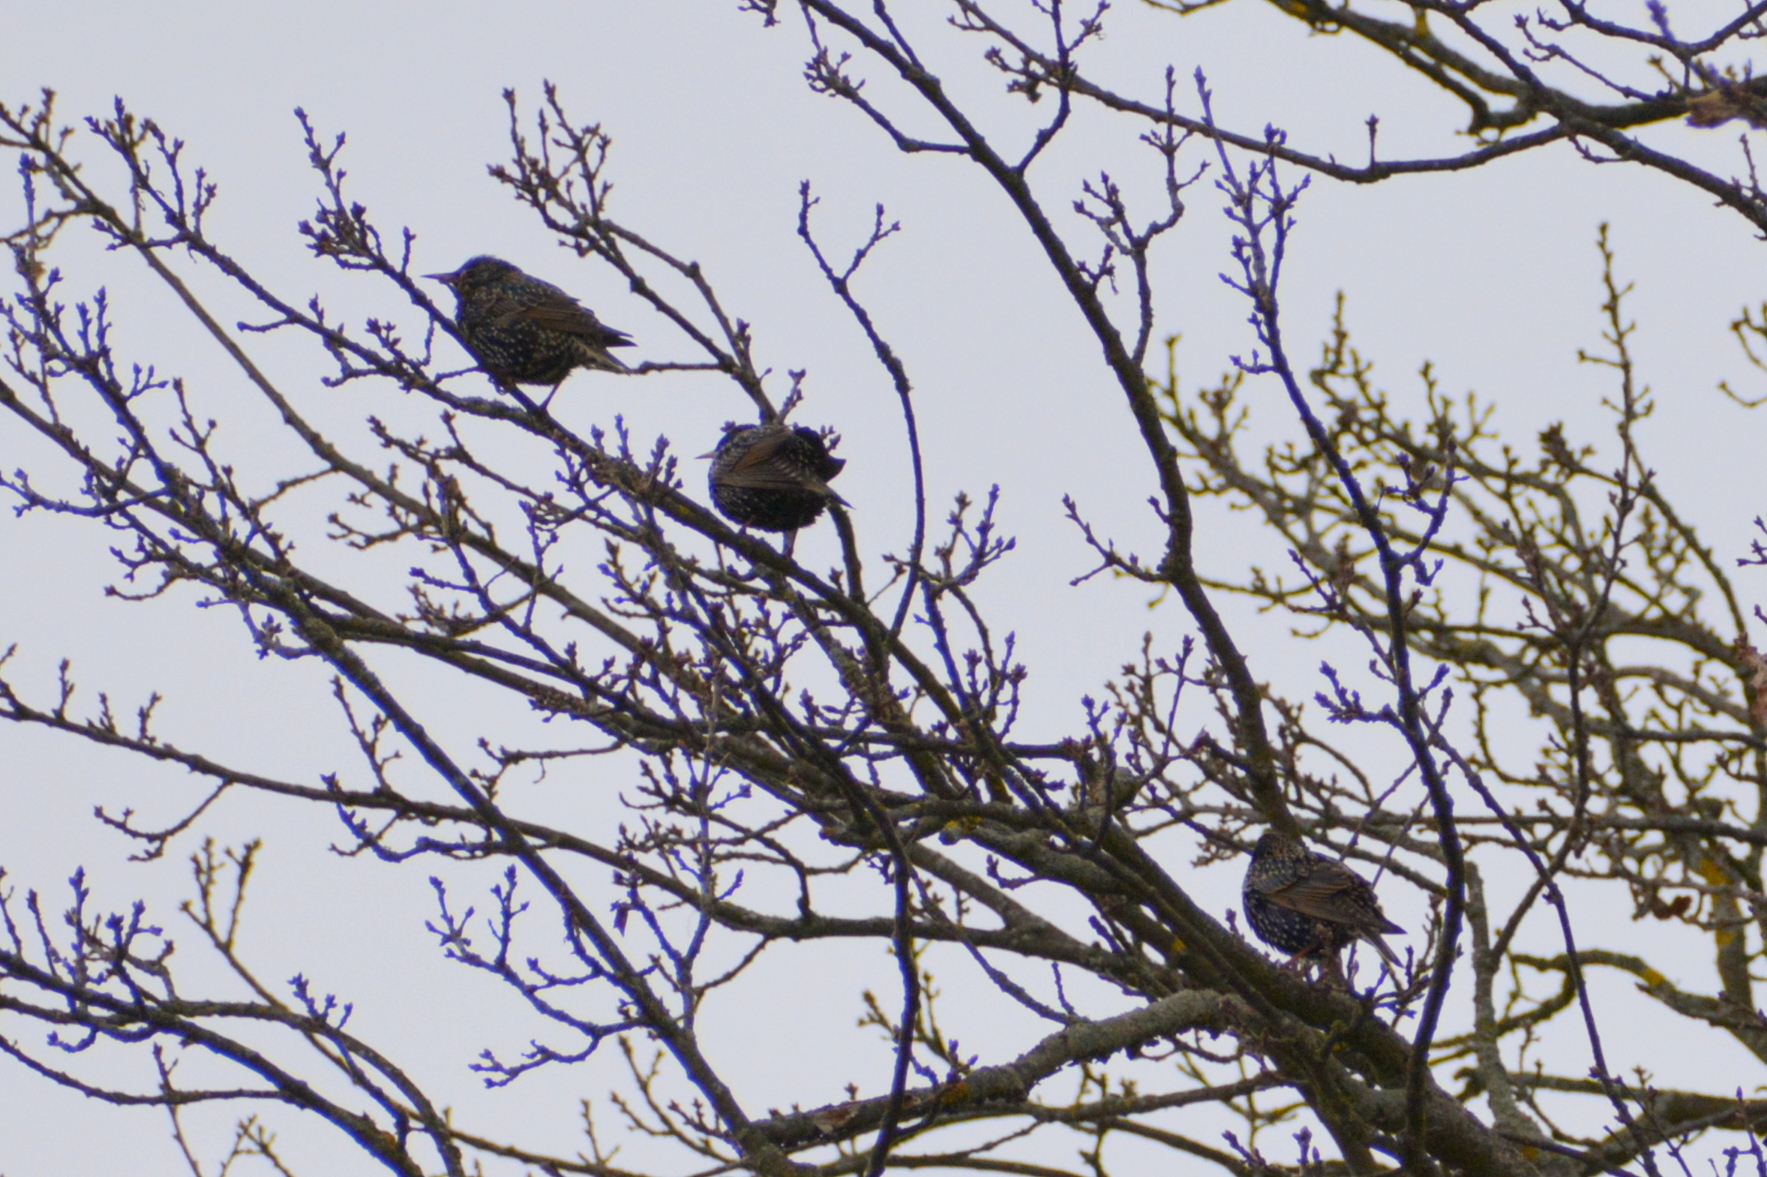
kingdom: Animalia
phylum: Chordata
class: Aves
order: Passeriformes
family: Sturnidae
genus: Sturnus
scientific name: Sturnus vulgaris
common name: Common starling
